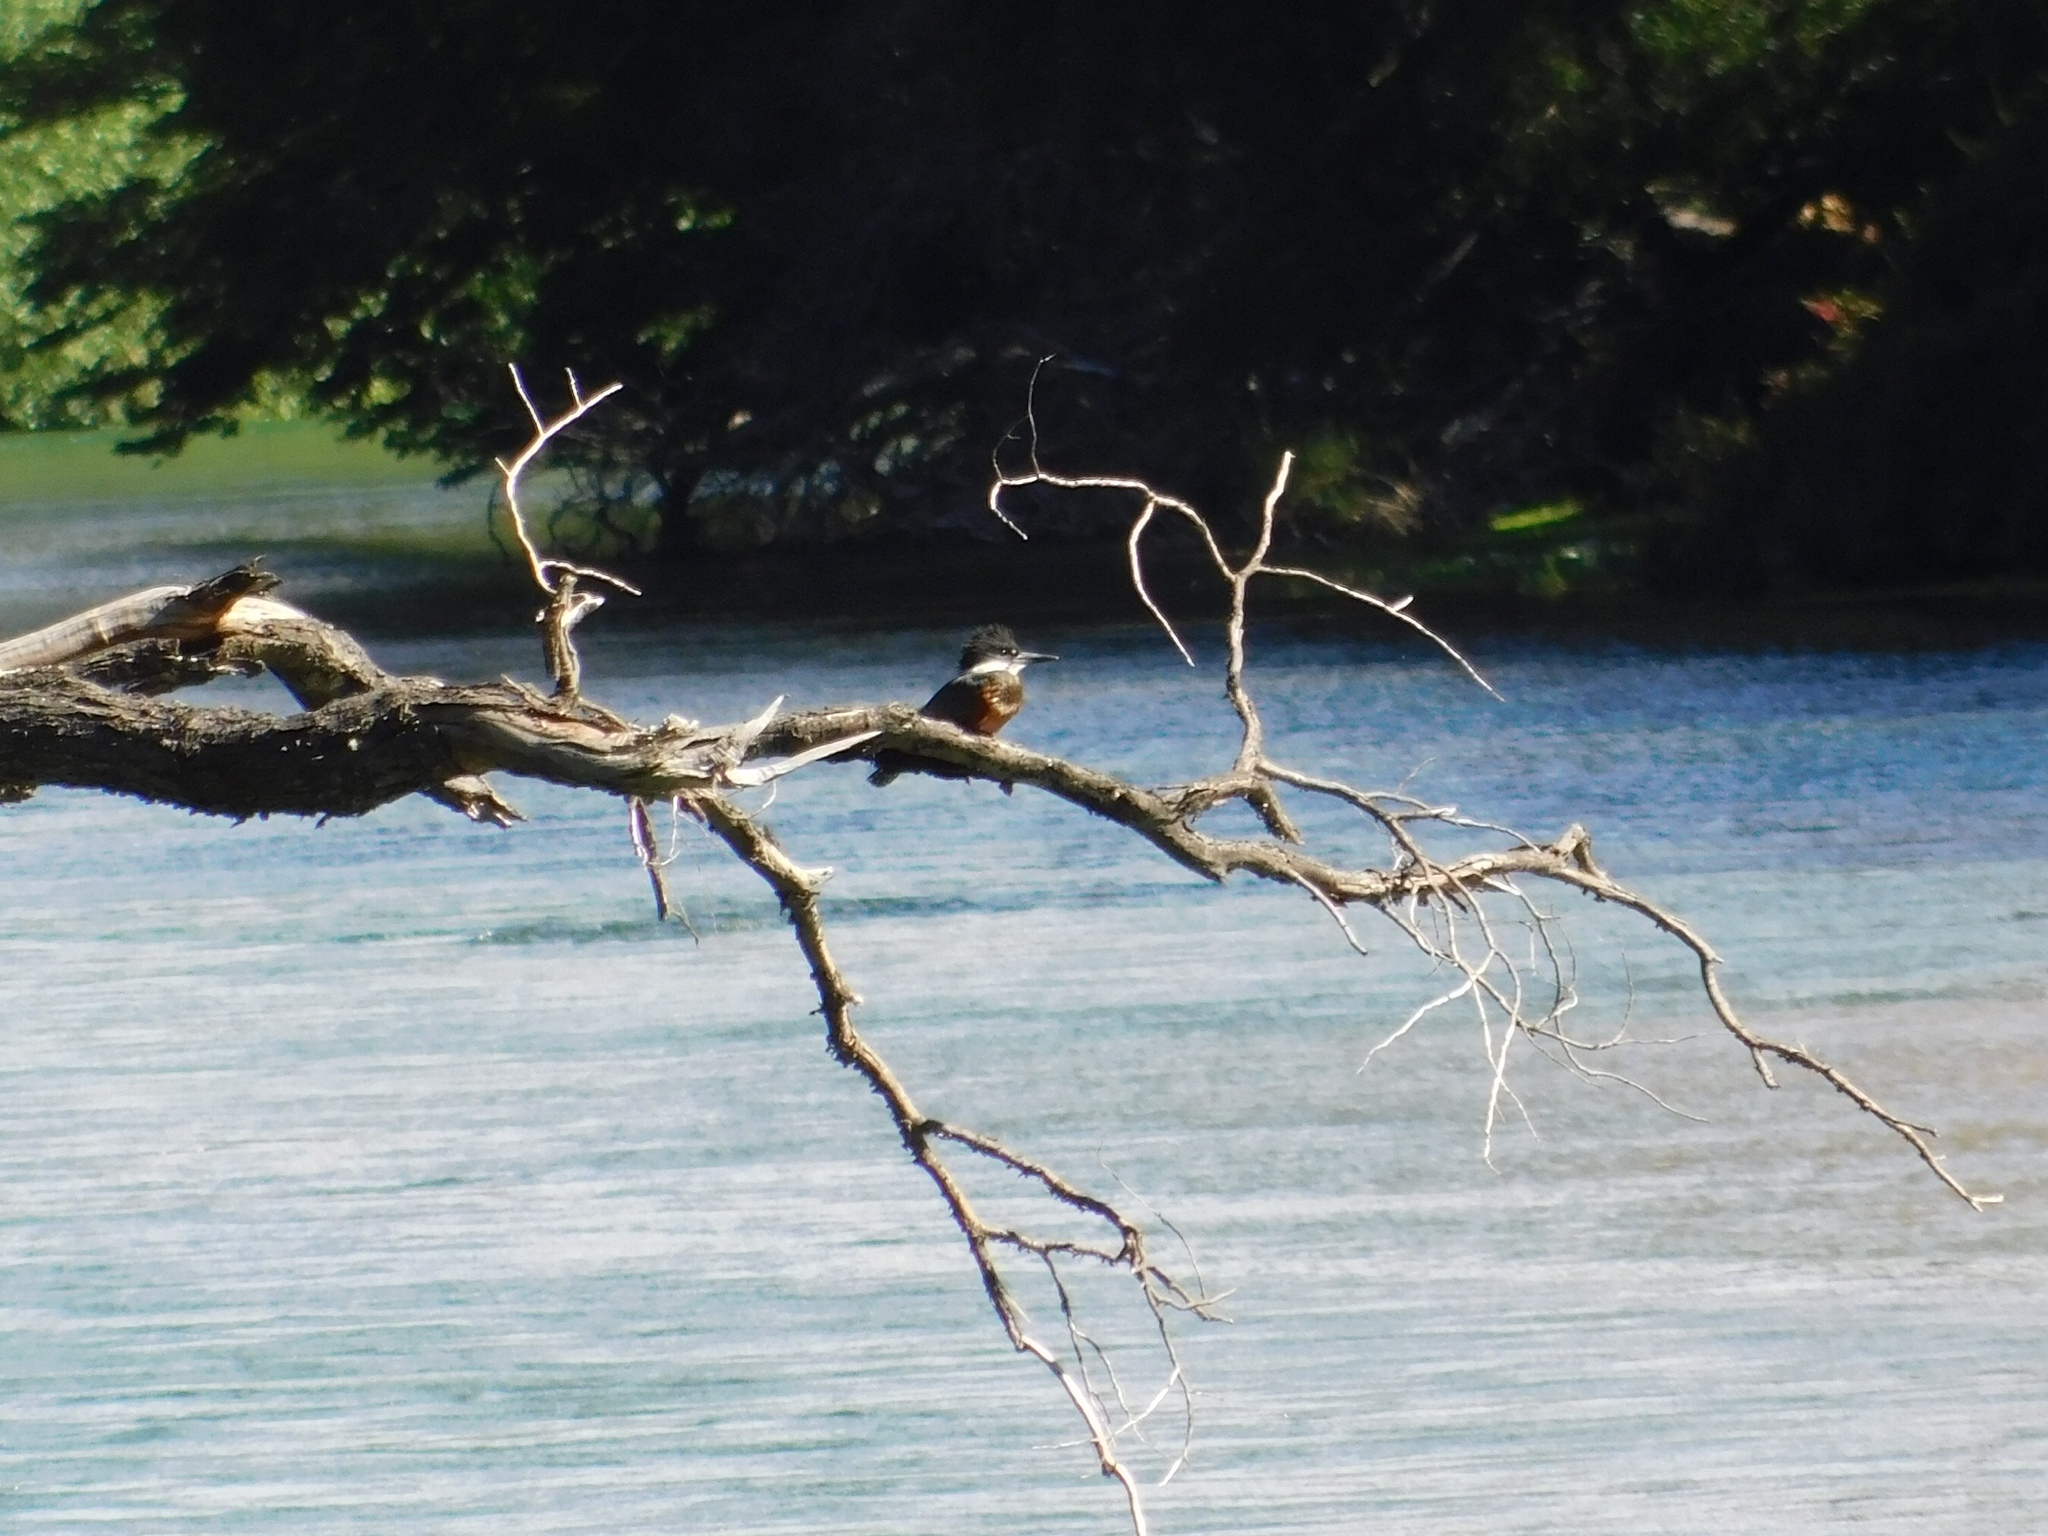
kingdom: Animalia
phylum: Chordata
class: Aves
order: Coraciiformes
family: Alcedinidae
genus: Megaceryle
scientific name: Megaceryle torquata
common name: Ringed kingfisher
